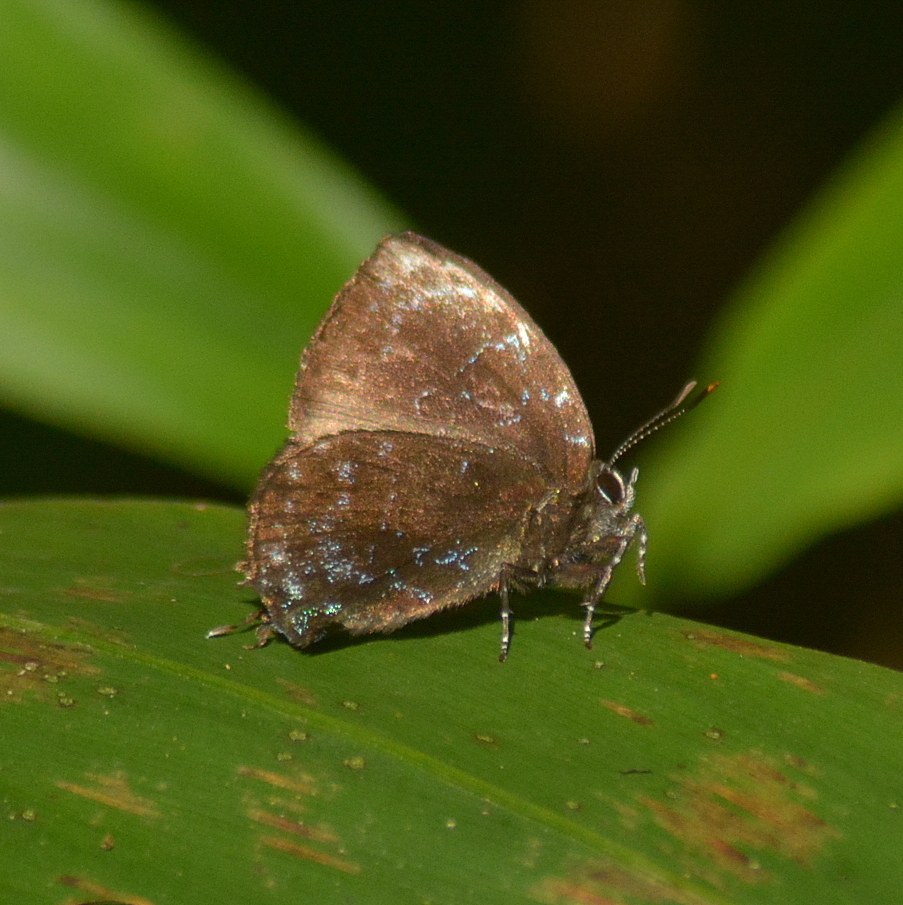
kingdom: Animalia
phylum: Arthropoda
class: Insecta
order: Lepidoptera
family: Lycaenidae
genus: Thecla
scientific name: Thecla thales
